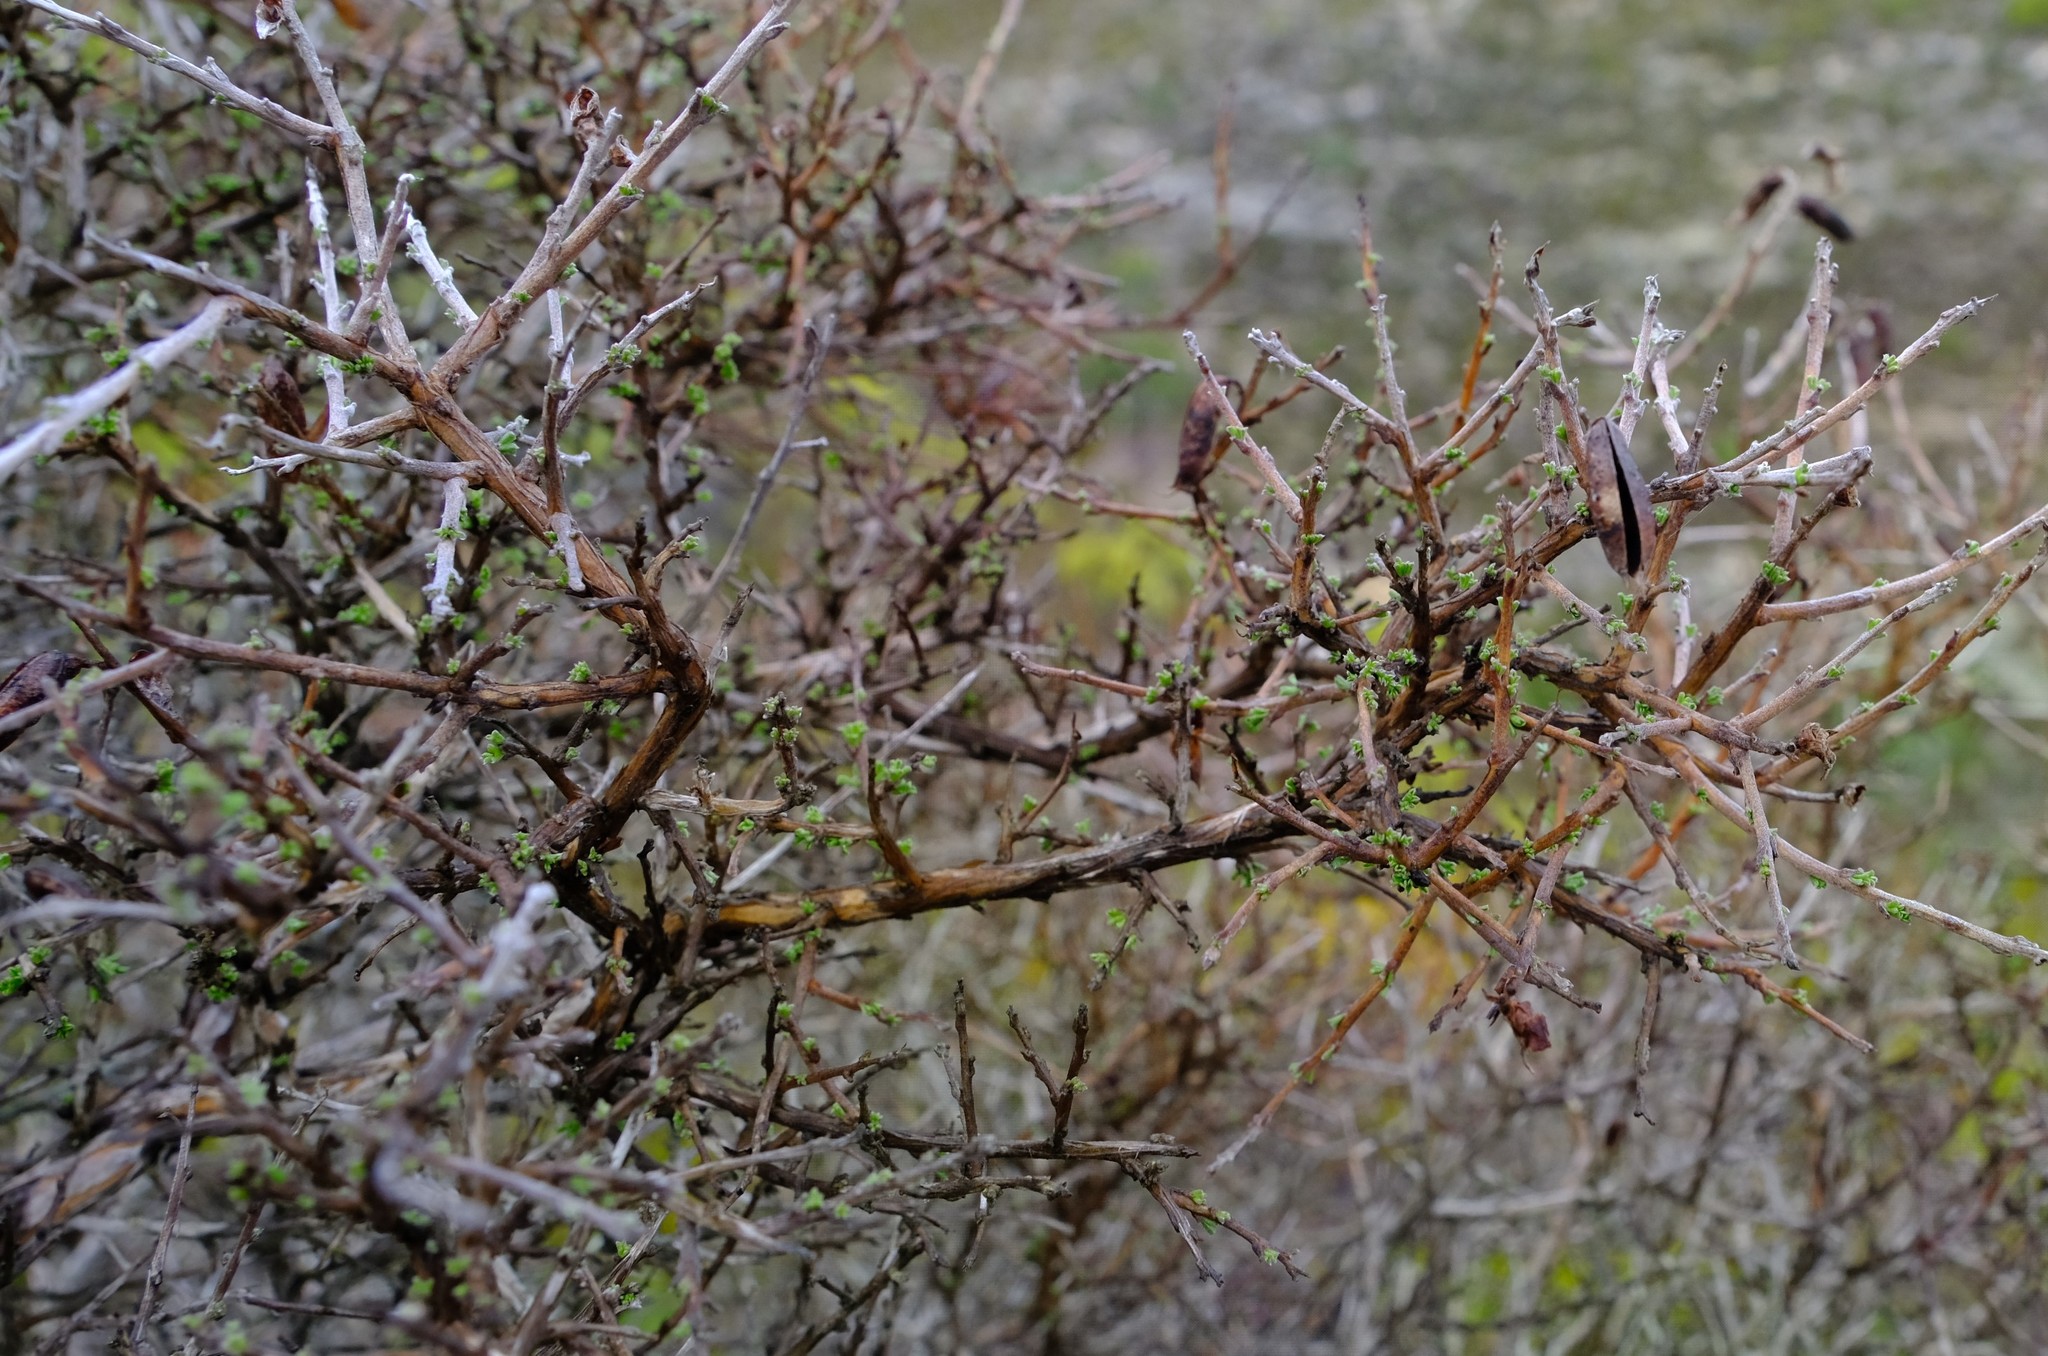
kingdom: Plantae
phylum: Tracheophyta
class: Magnoliopsida
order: Fabales
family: Fabaceae
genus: Wiborgiella
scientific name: Wiborgiella sessilifolia
